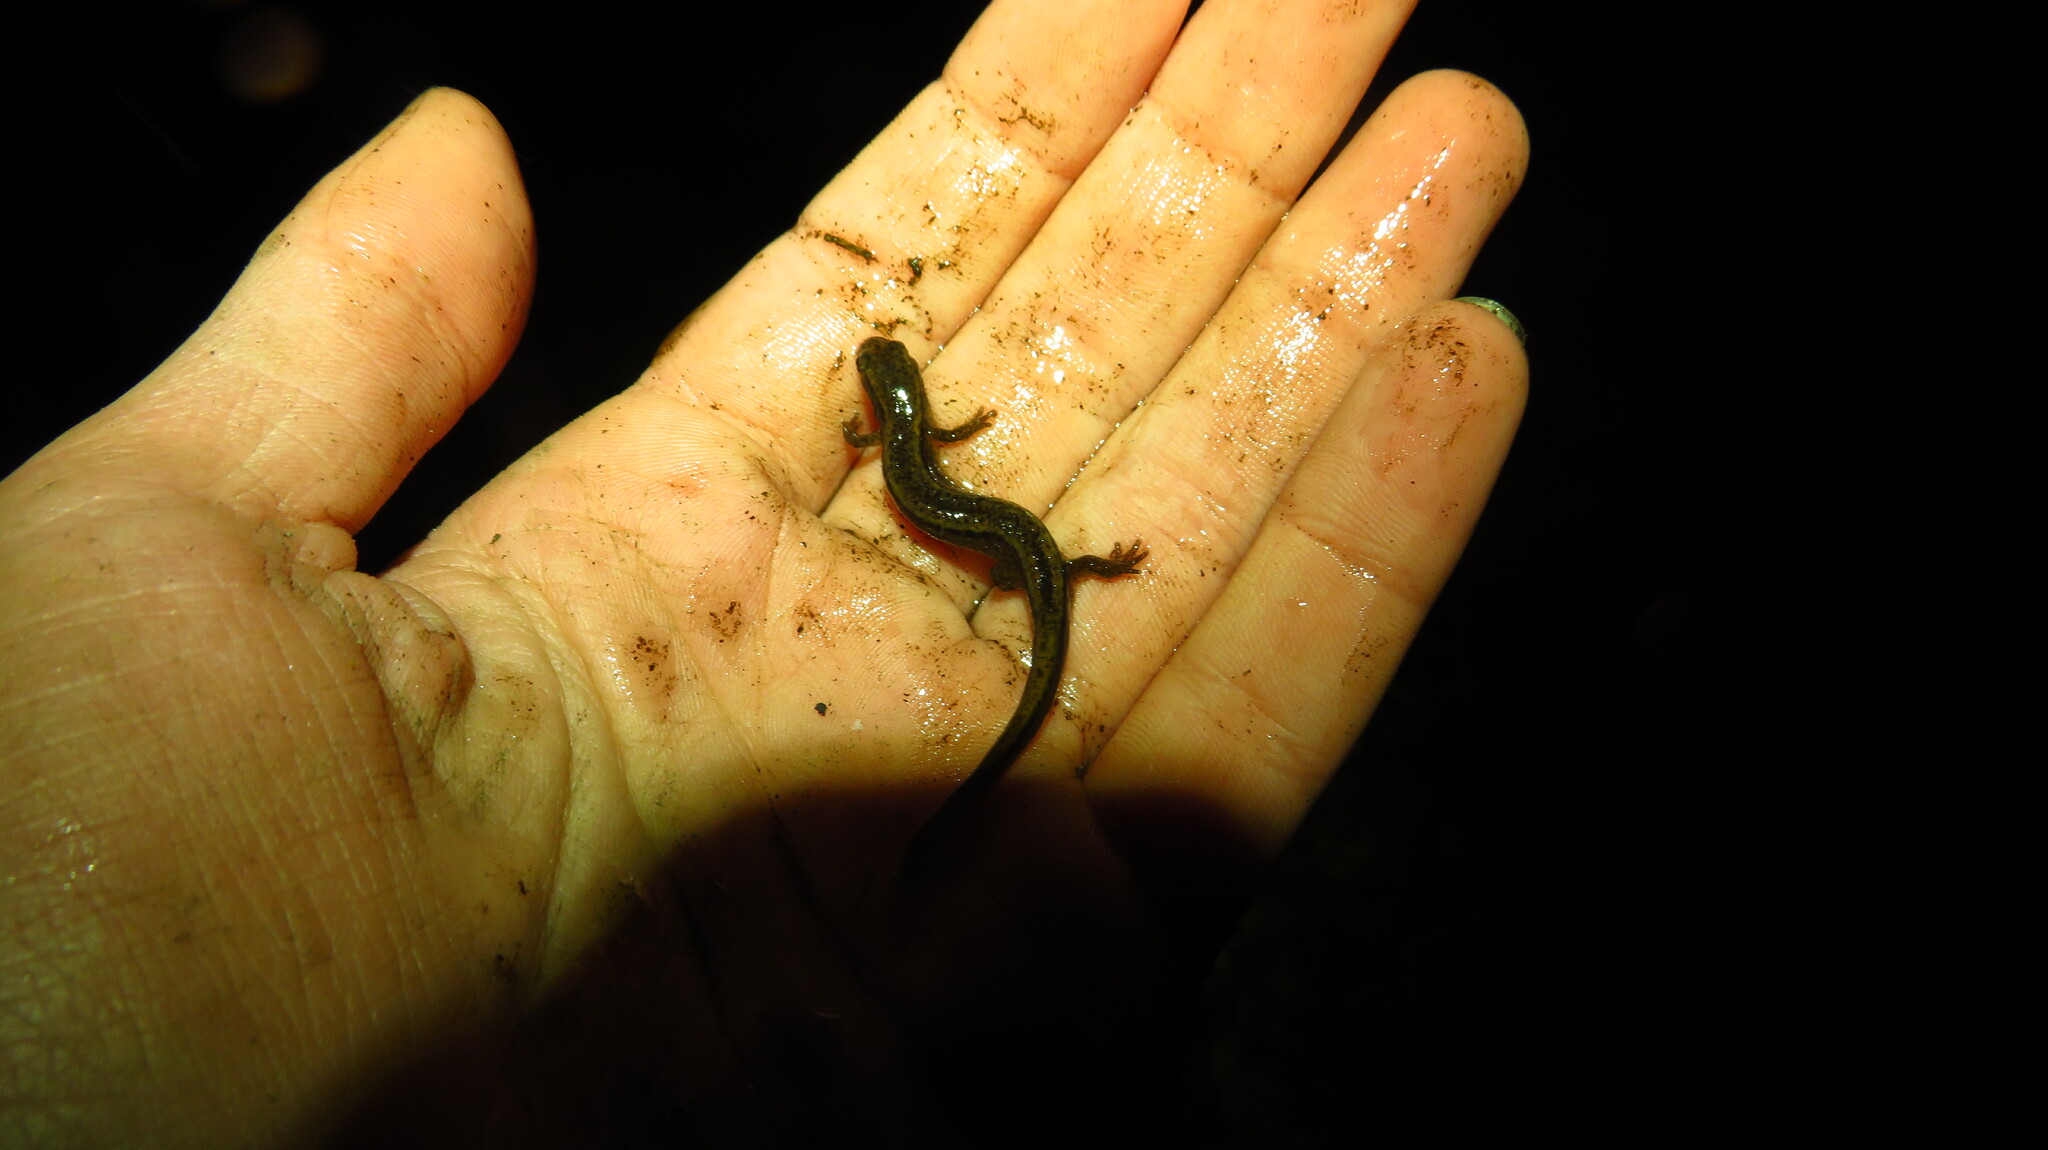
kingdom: Animalia
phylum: Chordata
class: Amphibia
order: Caudata
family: Plethodontidae
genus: Eurycea
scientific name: Eurycea bislineata
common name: Northern two-lined salamander
